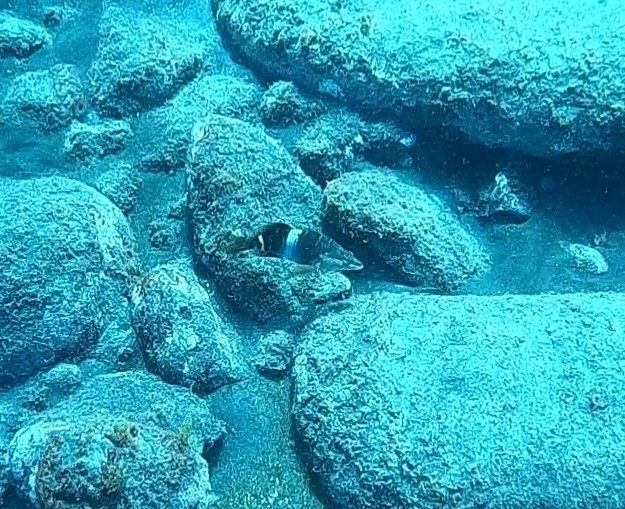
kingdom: Animalia
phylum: Chordata
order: Perciformes
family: Serranidae
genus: Serranus
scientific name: Serranus scriba
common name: Painted comber
